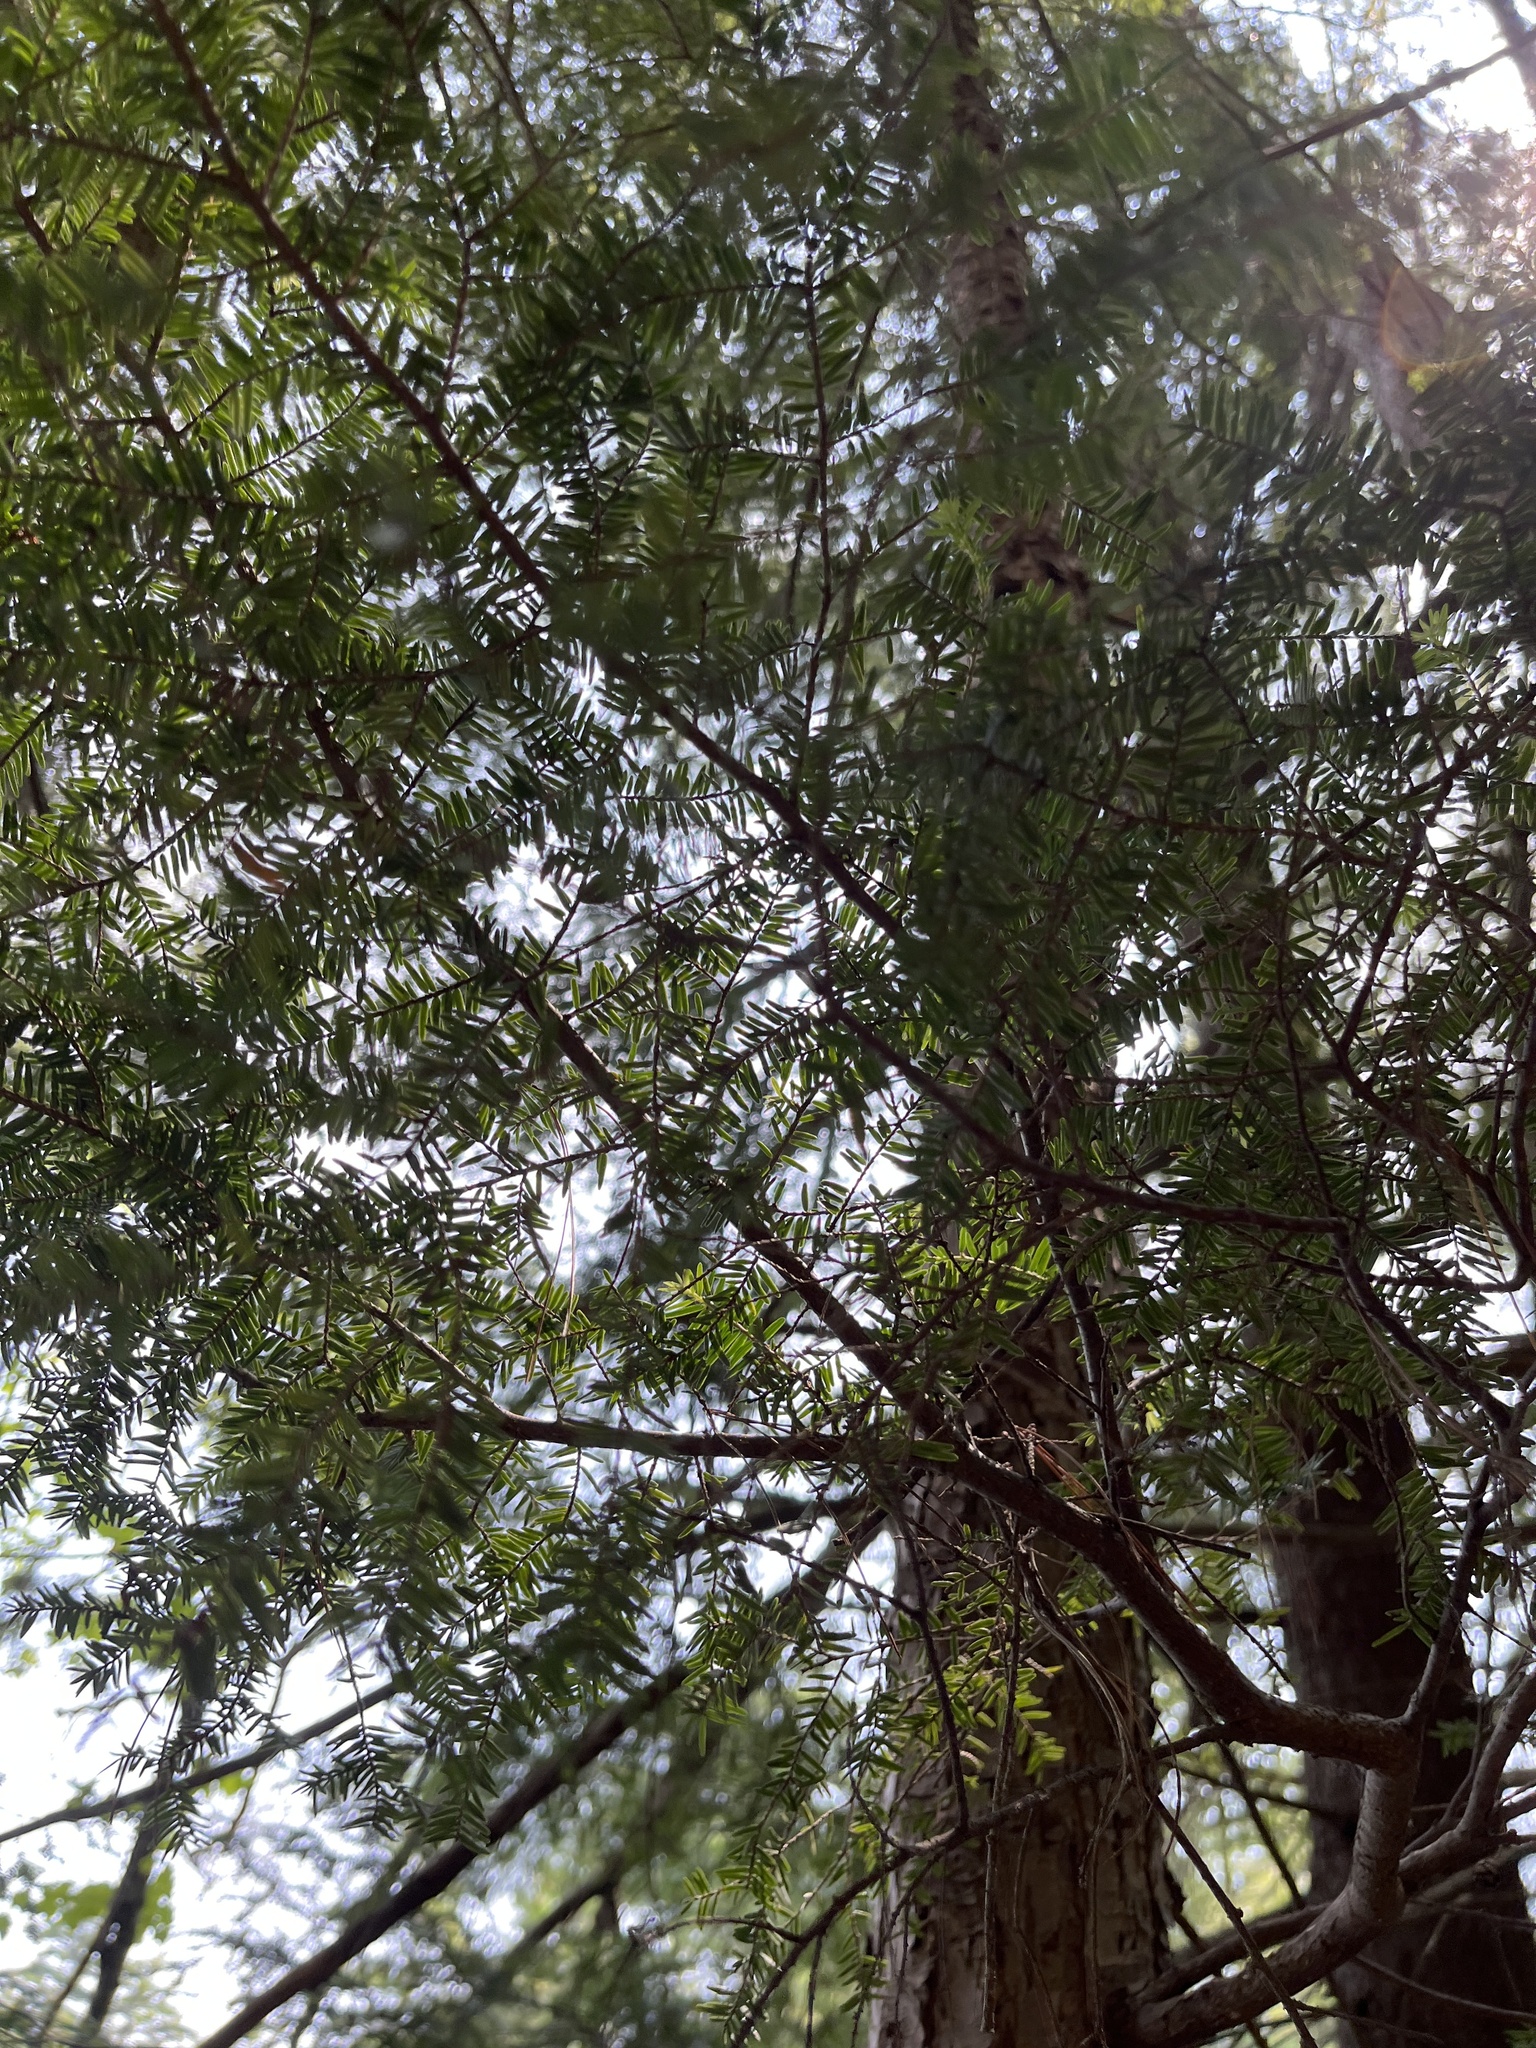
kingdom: Plantae
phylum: Tracheophyta
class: Pinopsida
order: Pinales
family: Pinaceae
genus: Tsuga
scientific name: Tsuga canadensis
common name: Eastern hemlock
